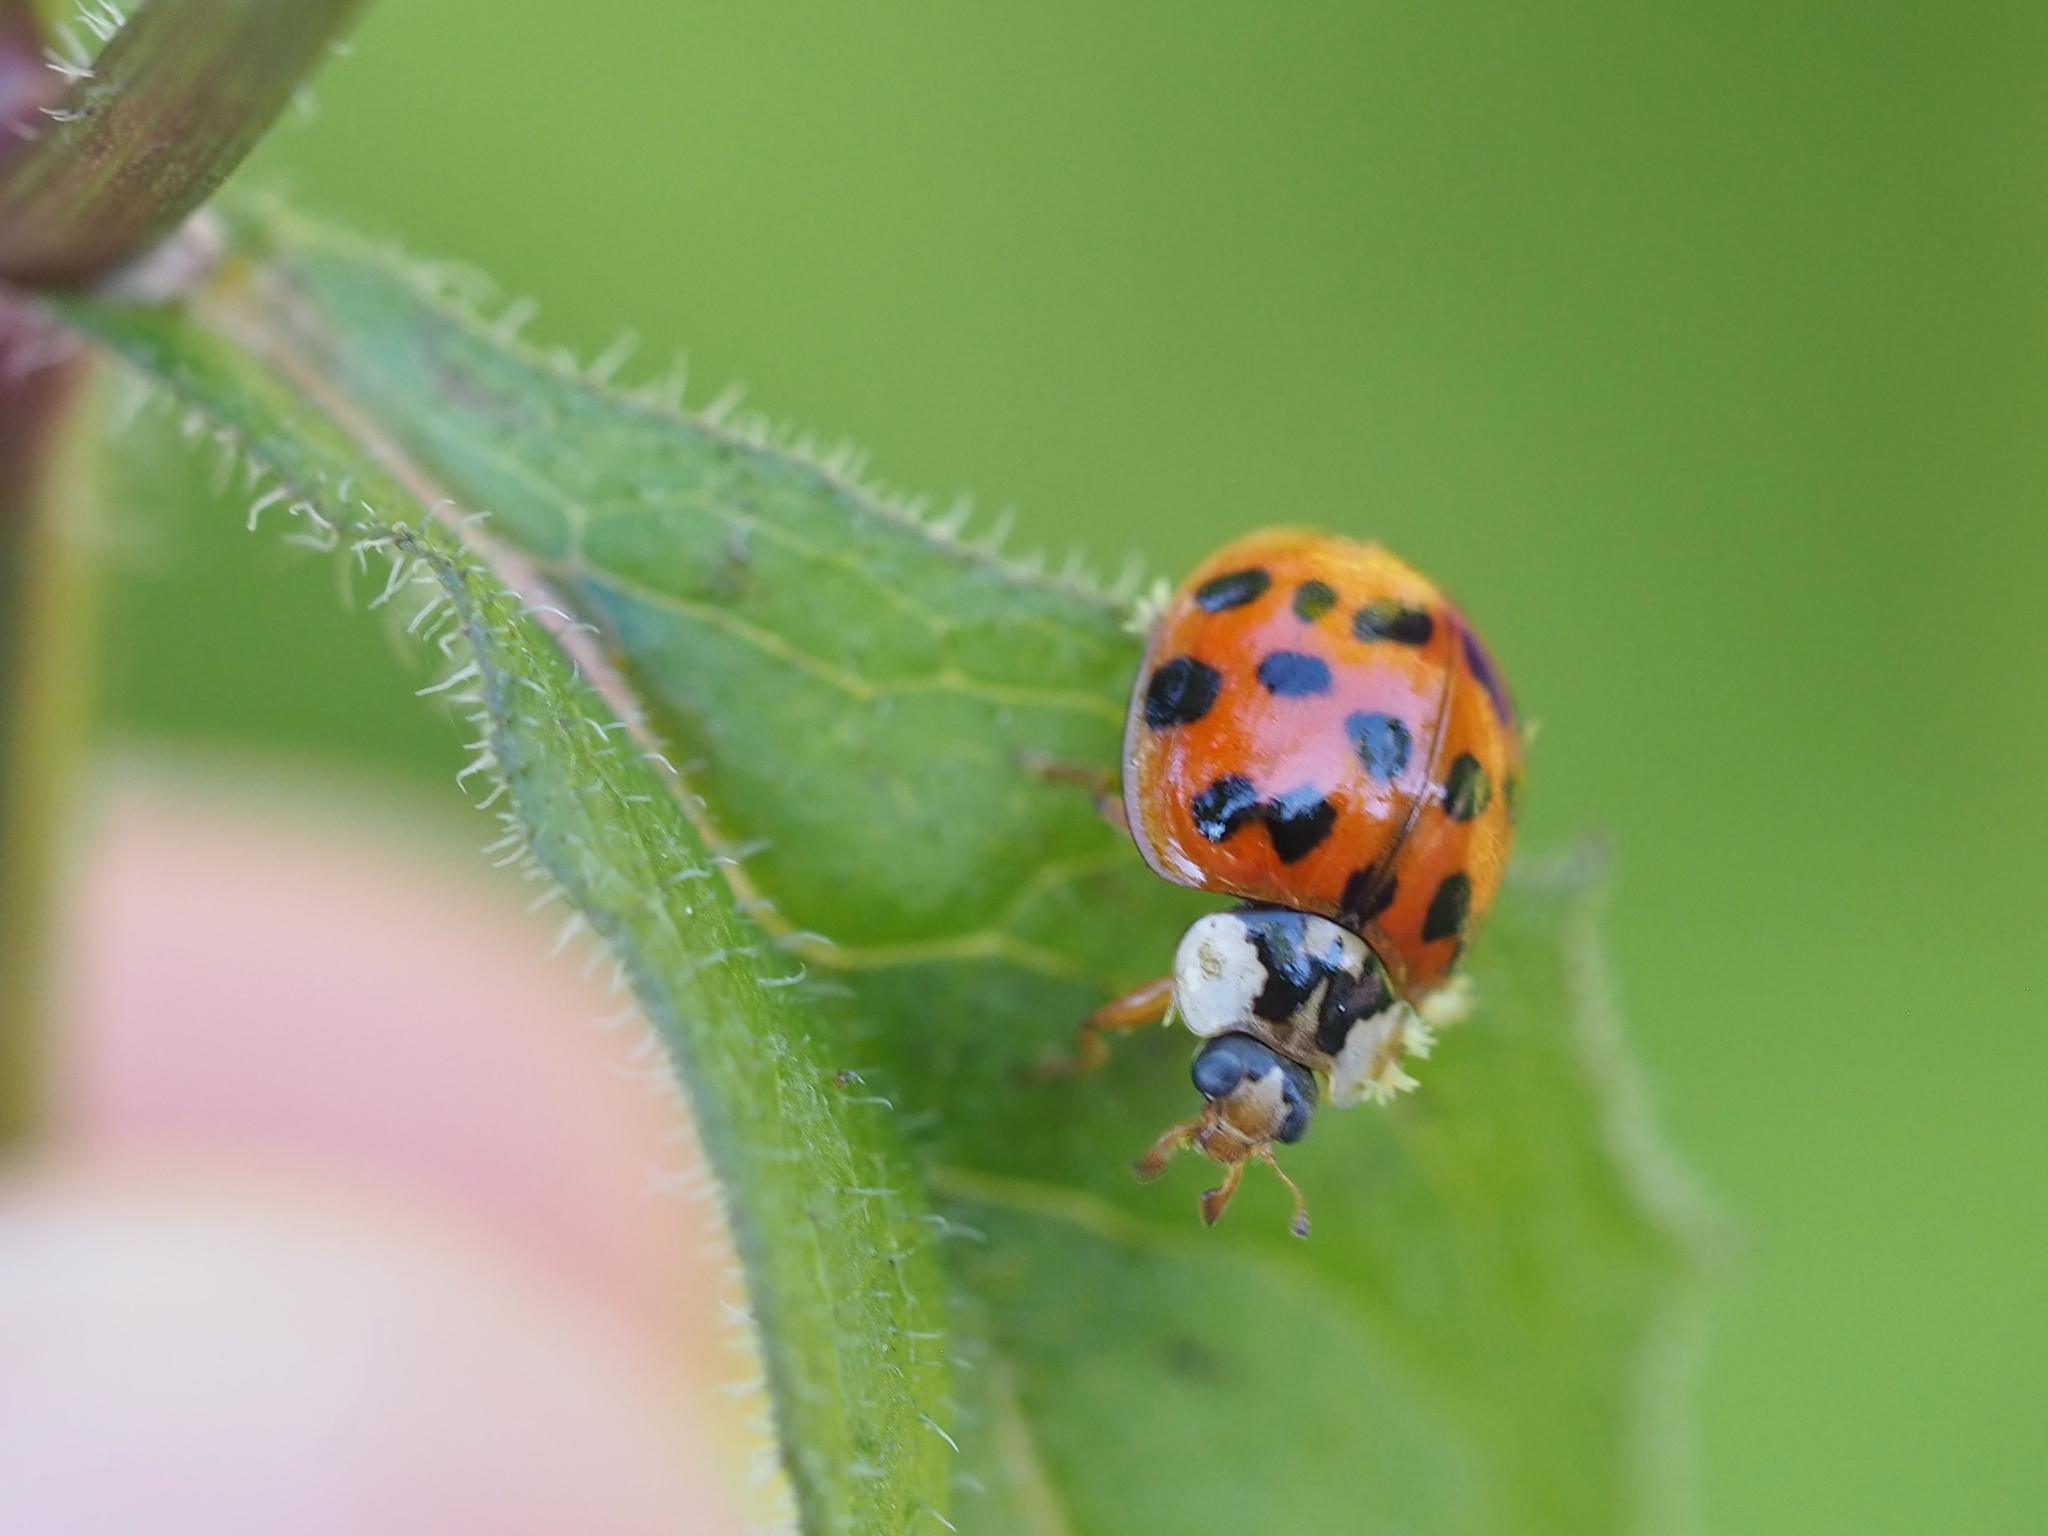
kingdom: Fungi
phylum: Ascomycota
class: Laboulbeniomycetes
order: Laboulbeniales
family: Laboulbeniaceae
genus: Hesperomyces
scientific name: Hesperomyces harmoniae
